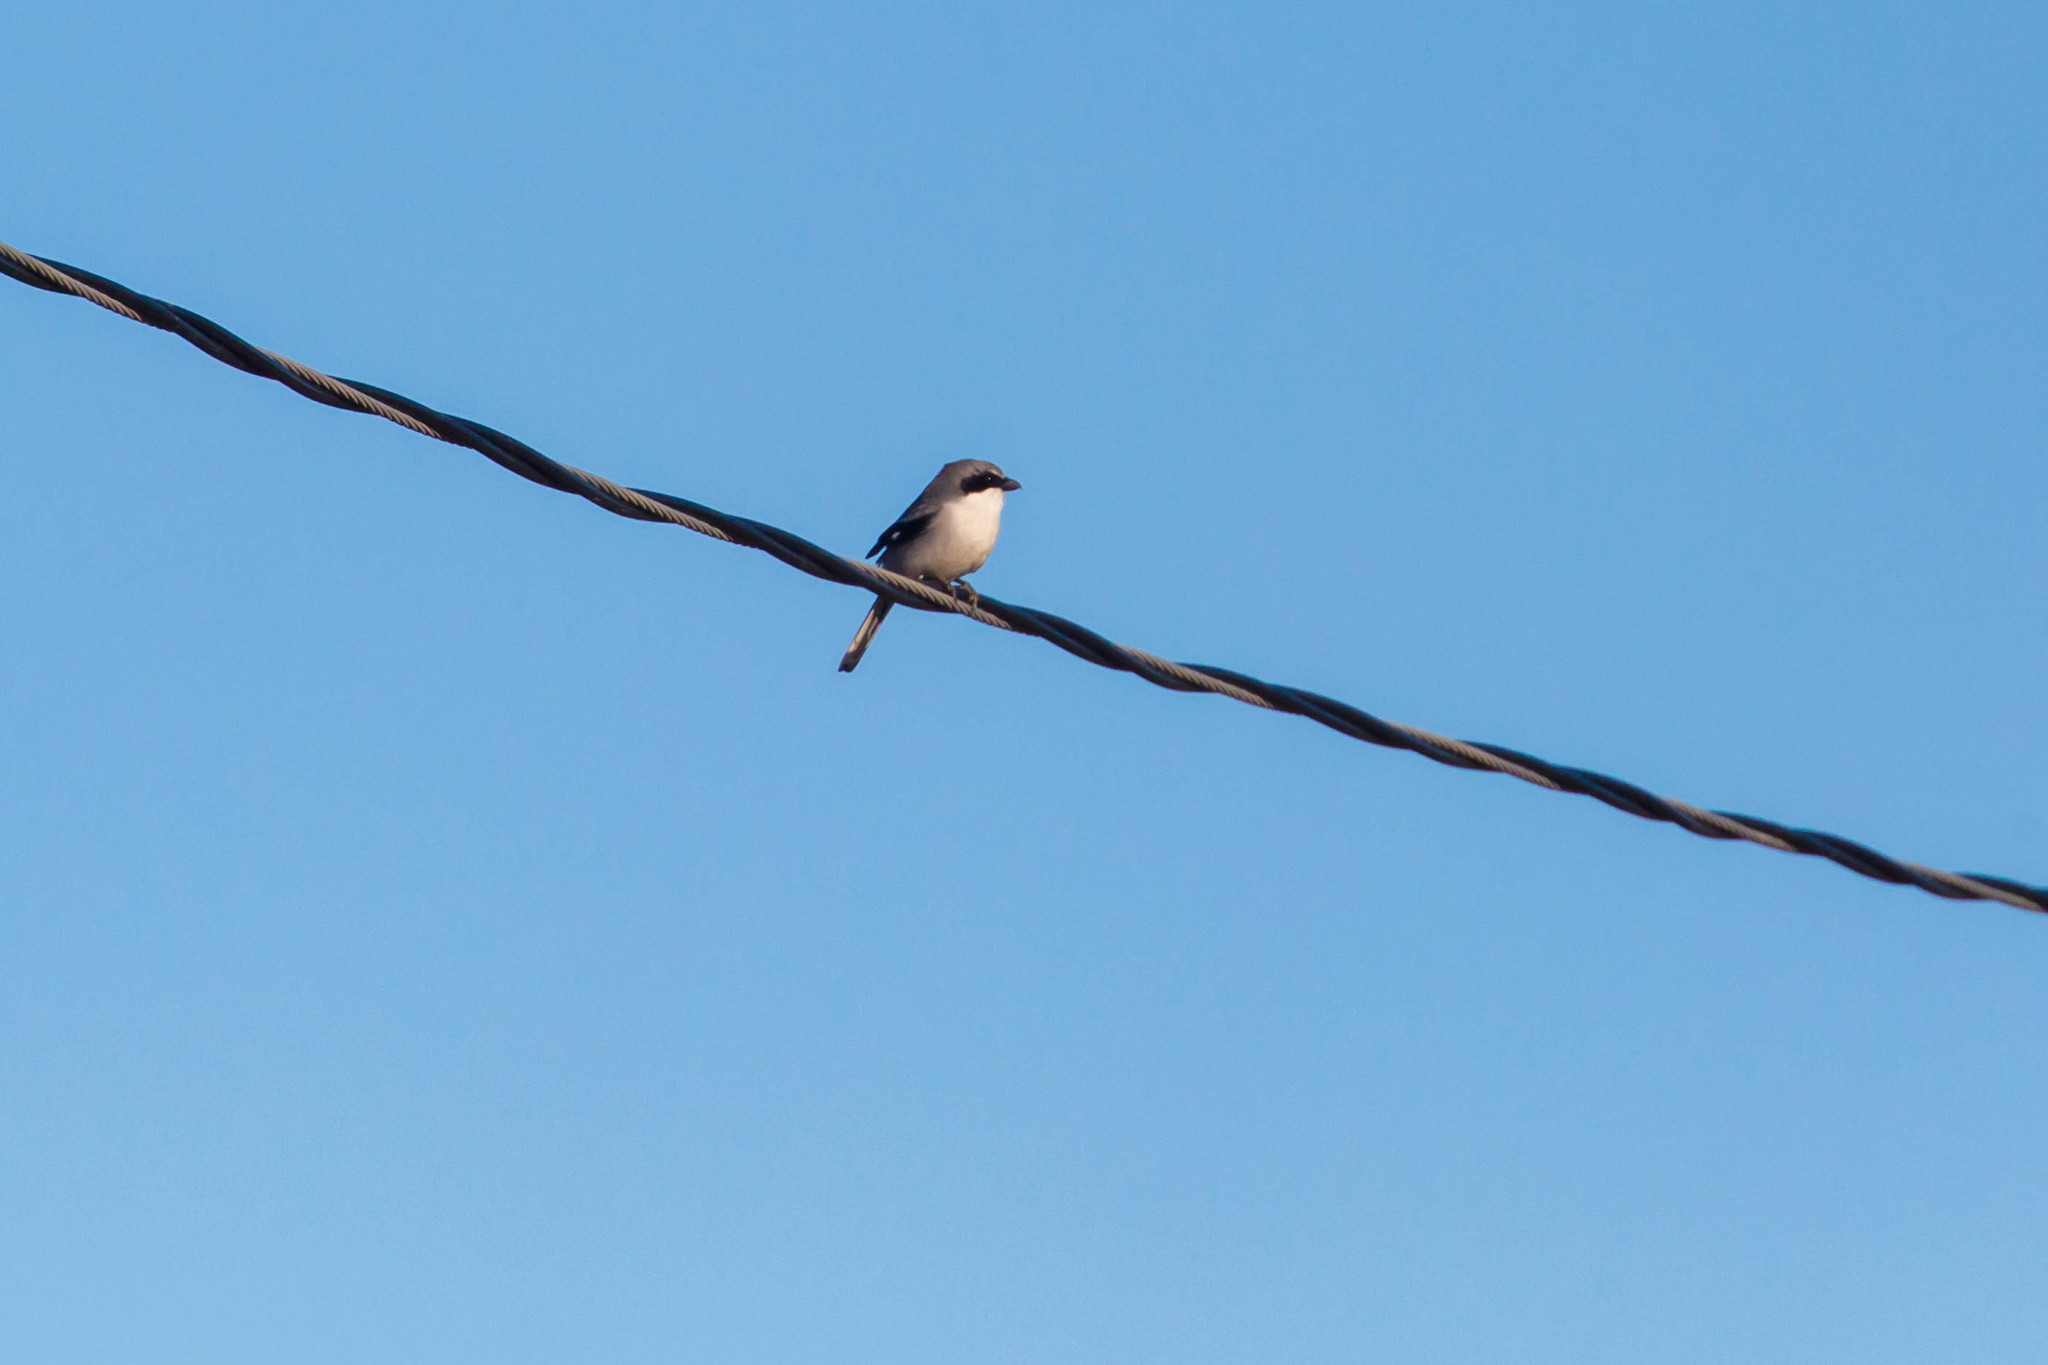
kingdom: Animalia
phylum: Chordata
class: Aves
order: Passeriformes
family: Laniidae
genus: Lanius
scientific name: Lanius ludovicianus
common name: Loggerhead shrike
